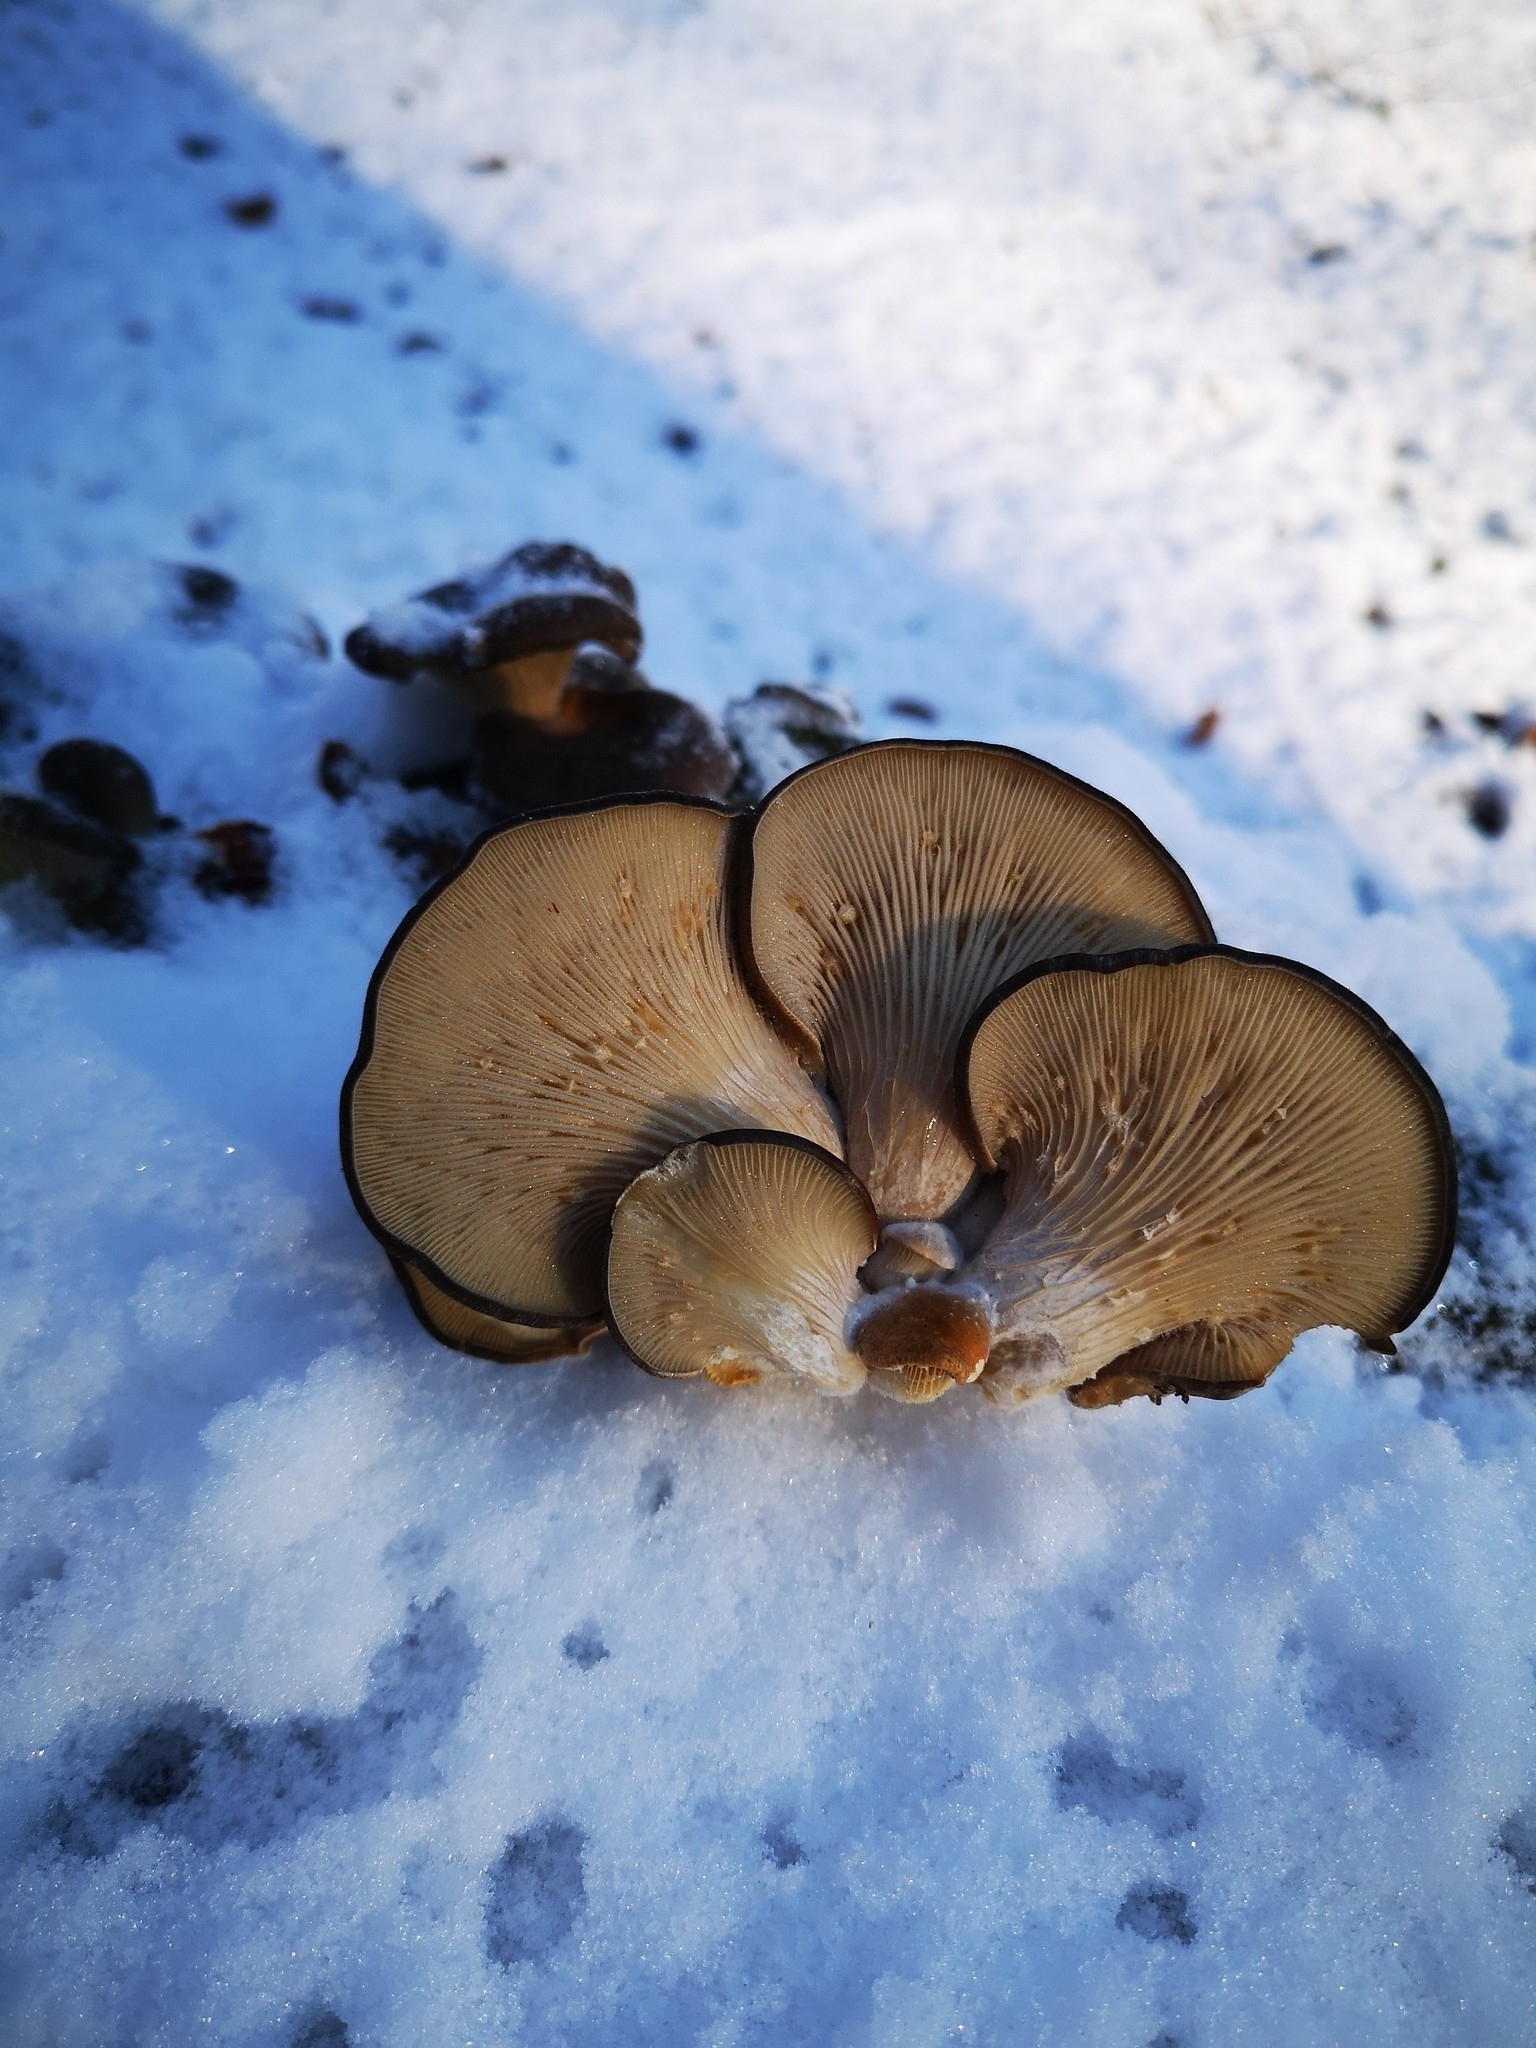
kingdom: Fungi
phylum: Basidiomycota
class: Agaricomycetes
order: Agaricales
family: Pleurotaceae
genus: Pleurotus
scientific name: Pleurotus ostreatus
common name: Oyster mushroom
